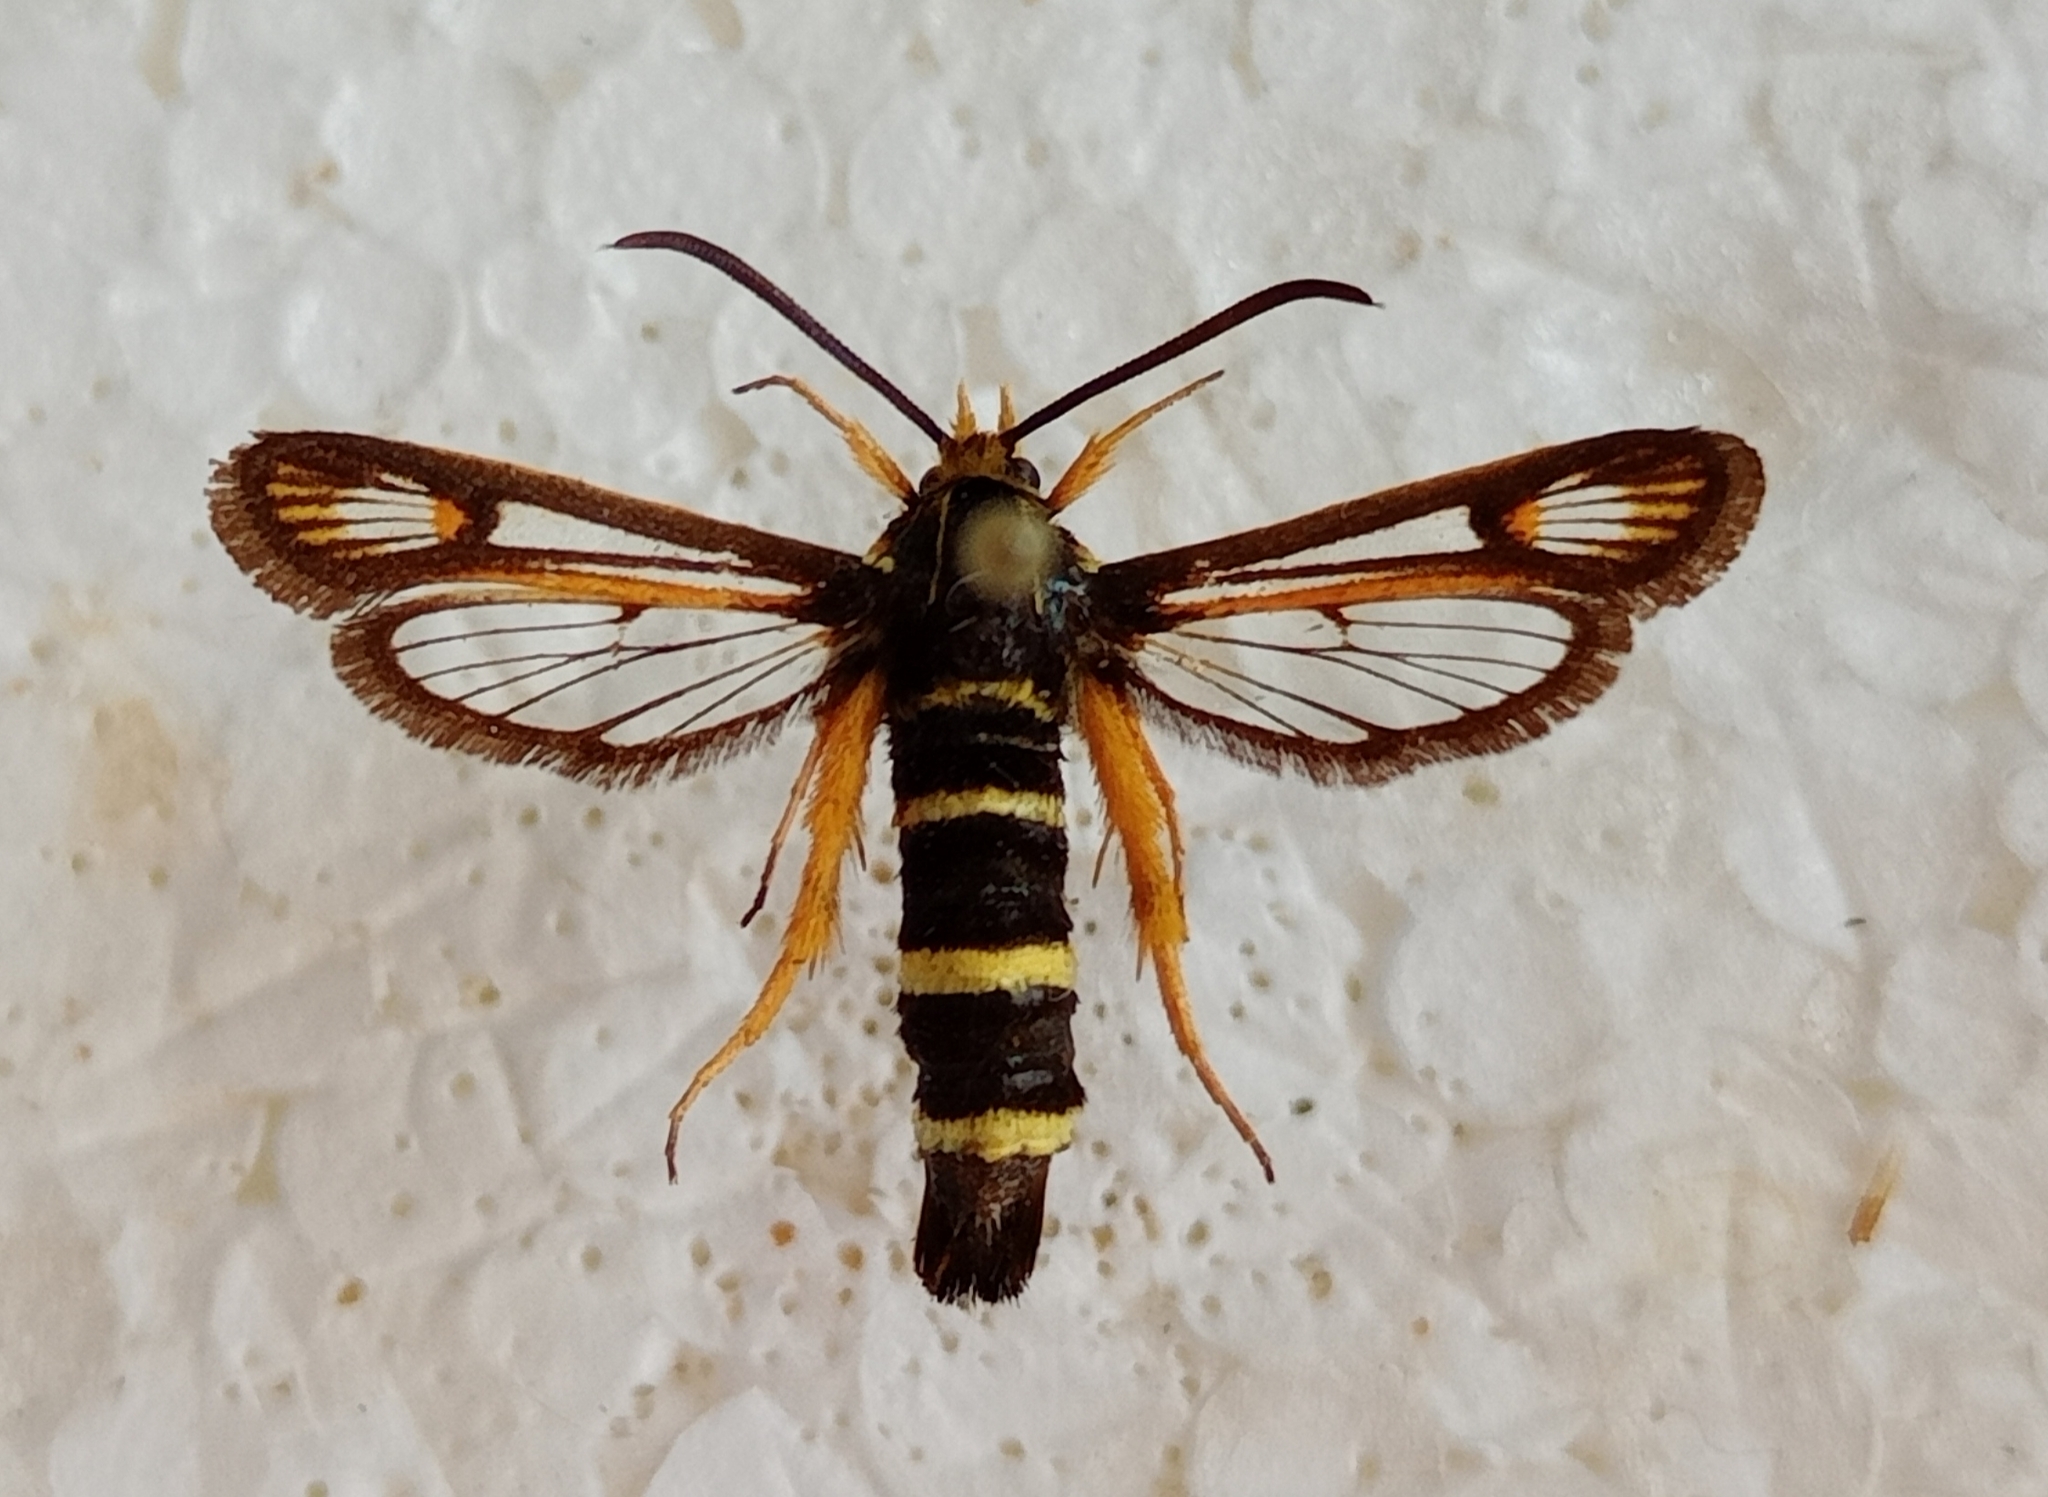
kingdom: Animalia
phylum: Arthropoda
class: Insecta
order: Lepidoptera
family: Sesiidae
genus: Bembecia
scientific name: Bembecia megillaeformis
